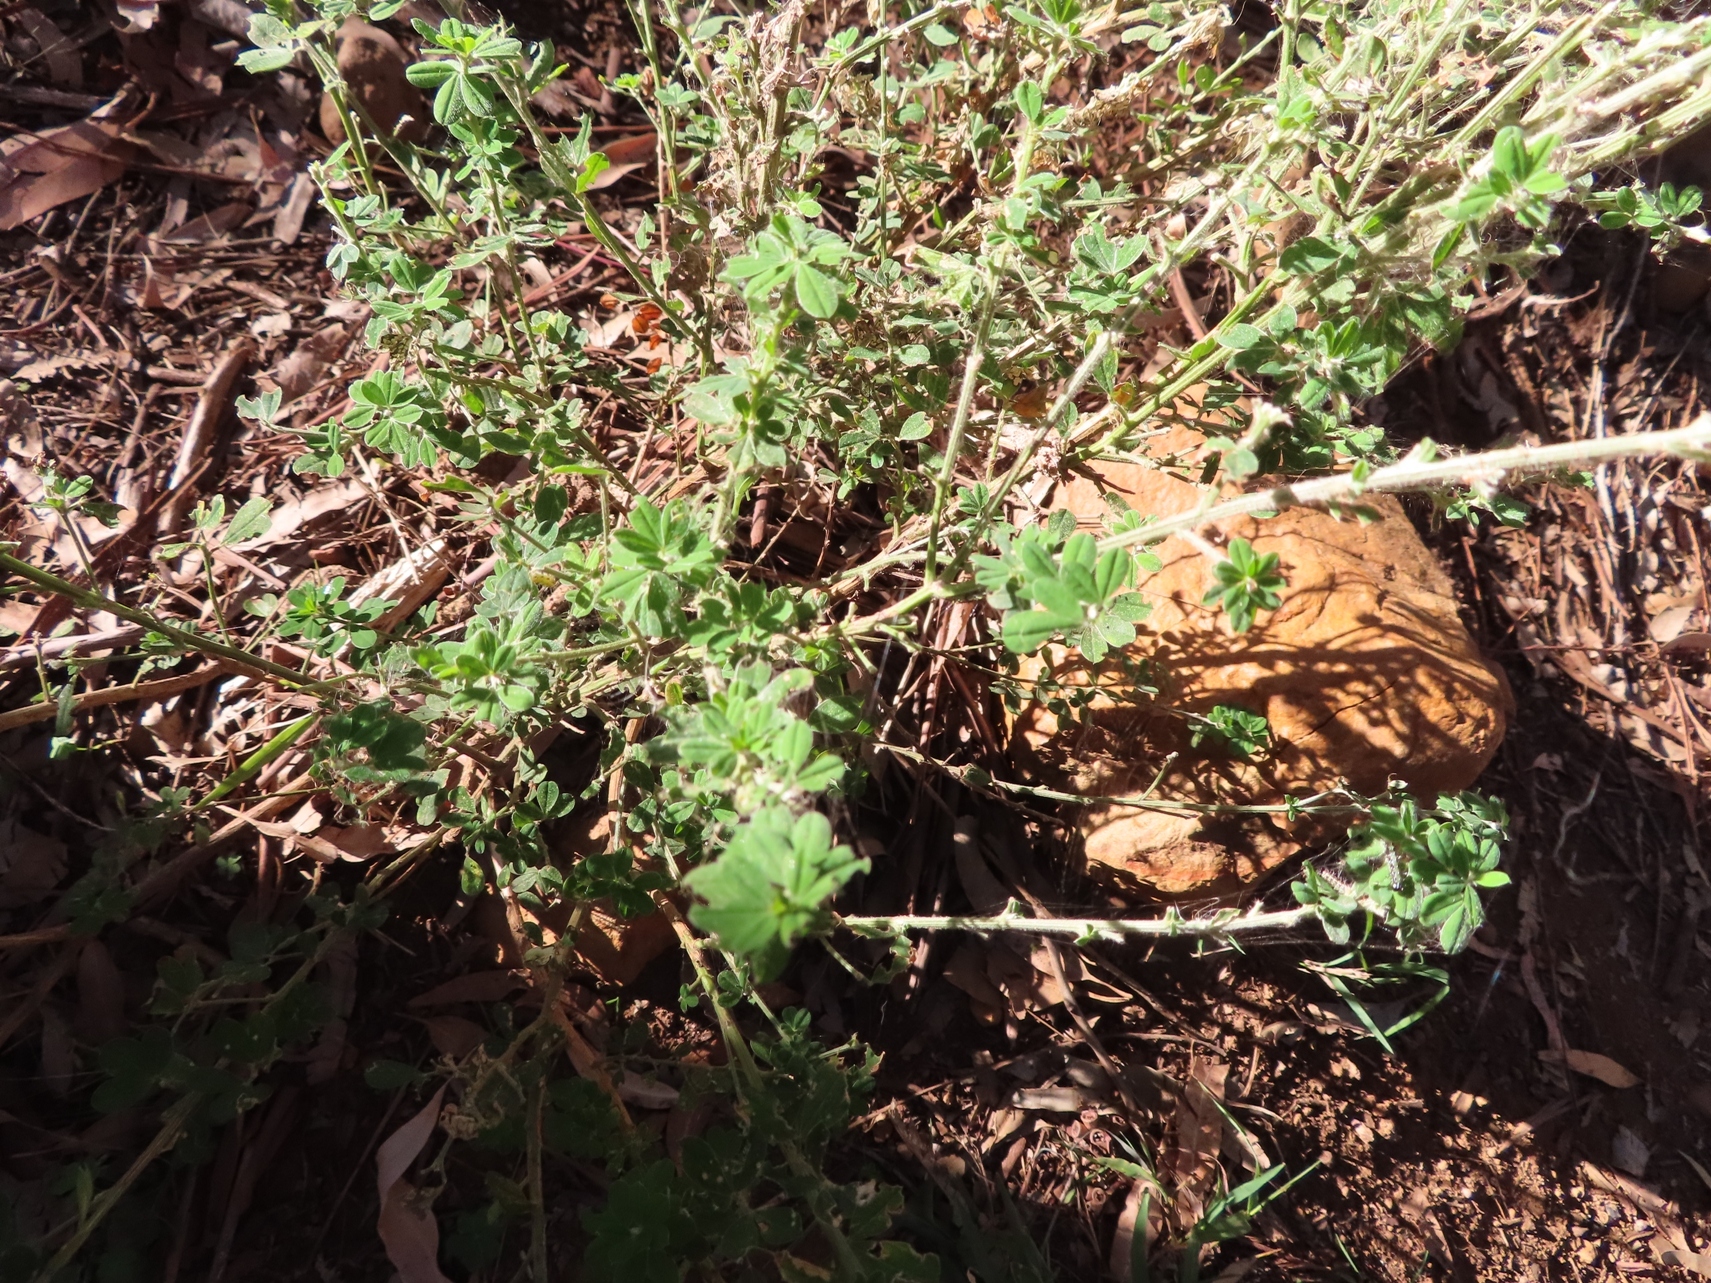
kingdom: Plantae
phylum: Tracheophyta
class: Magnoliopsida
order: Fabales
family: Fabaceae
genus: Genista
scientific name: Genista monspessulana
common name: Montpellier broom
